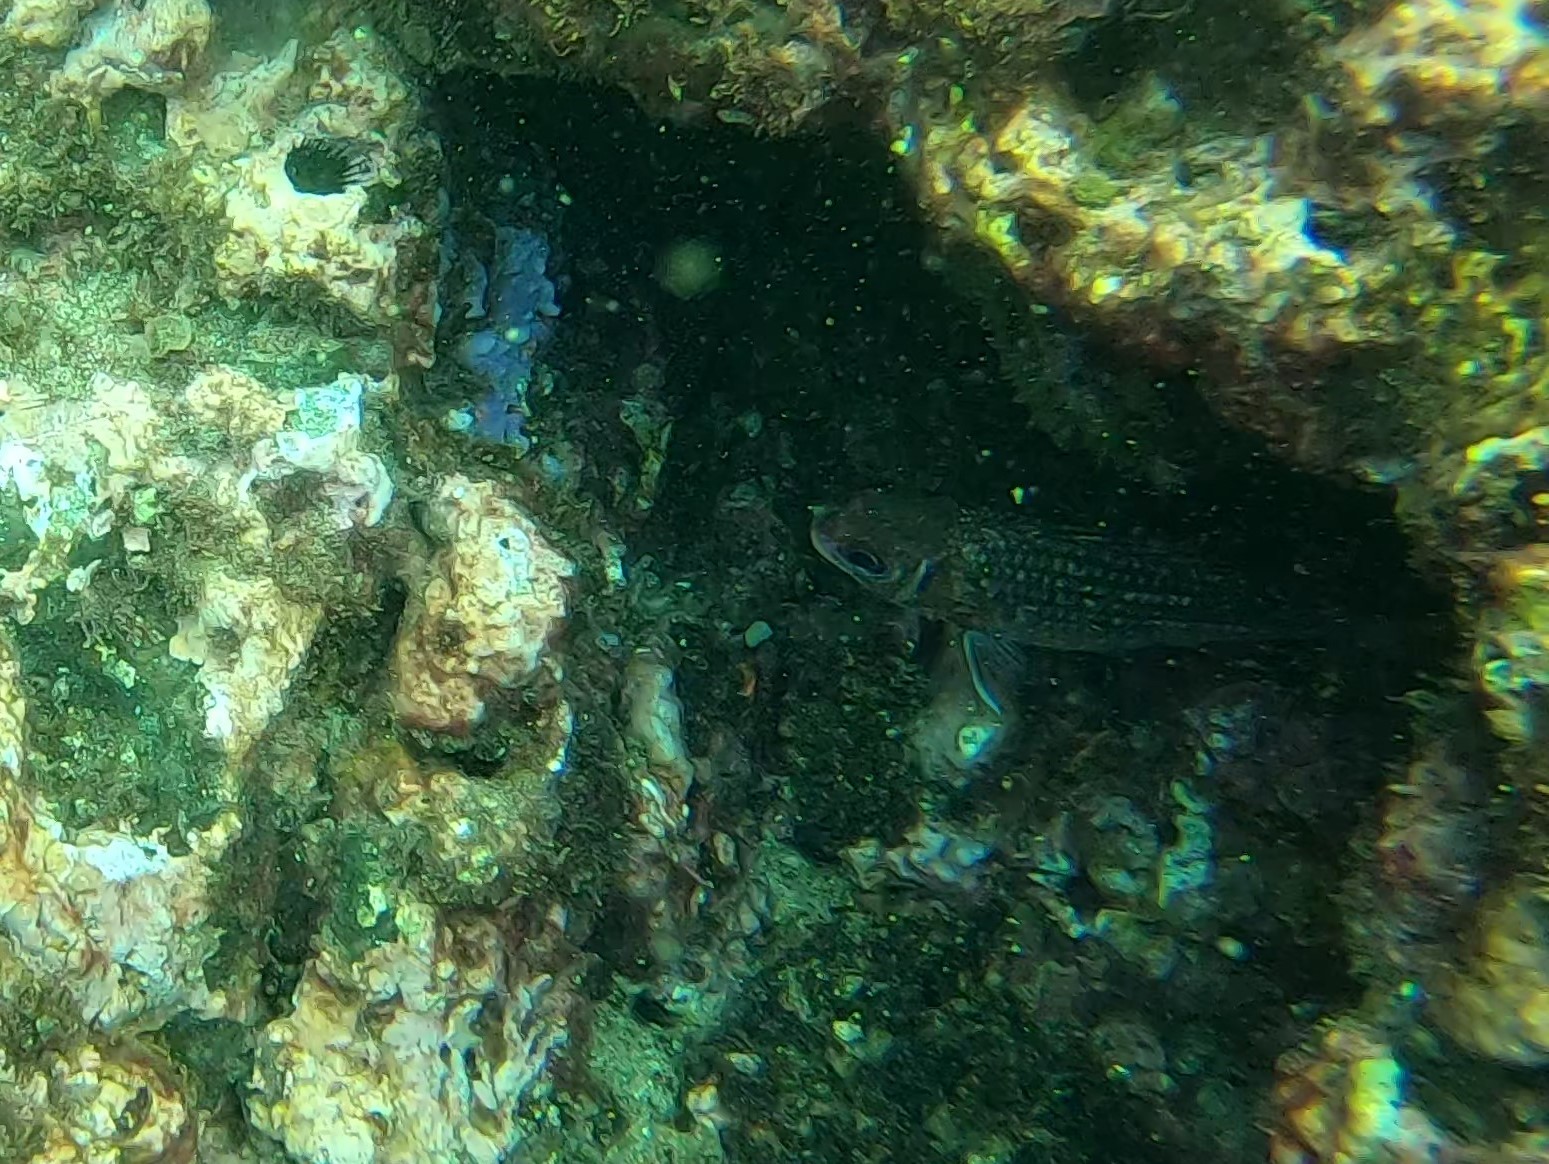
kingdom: Animalia
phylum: Chordata
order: Beryciformes
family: Holocentridae
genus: Sargocentron
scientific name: Sargocentron suborbitale
